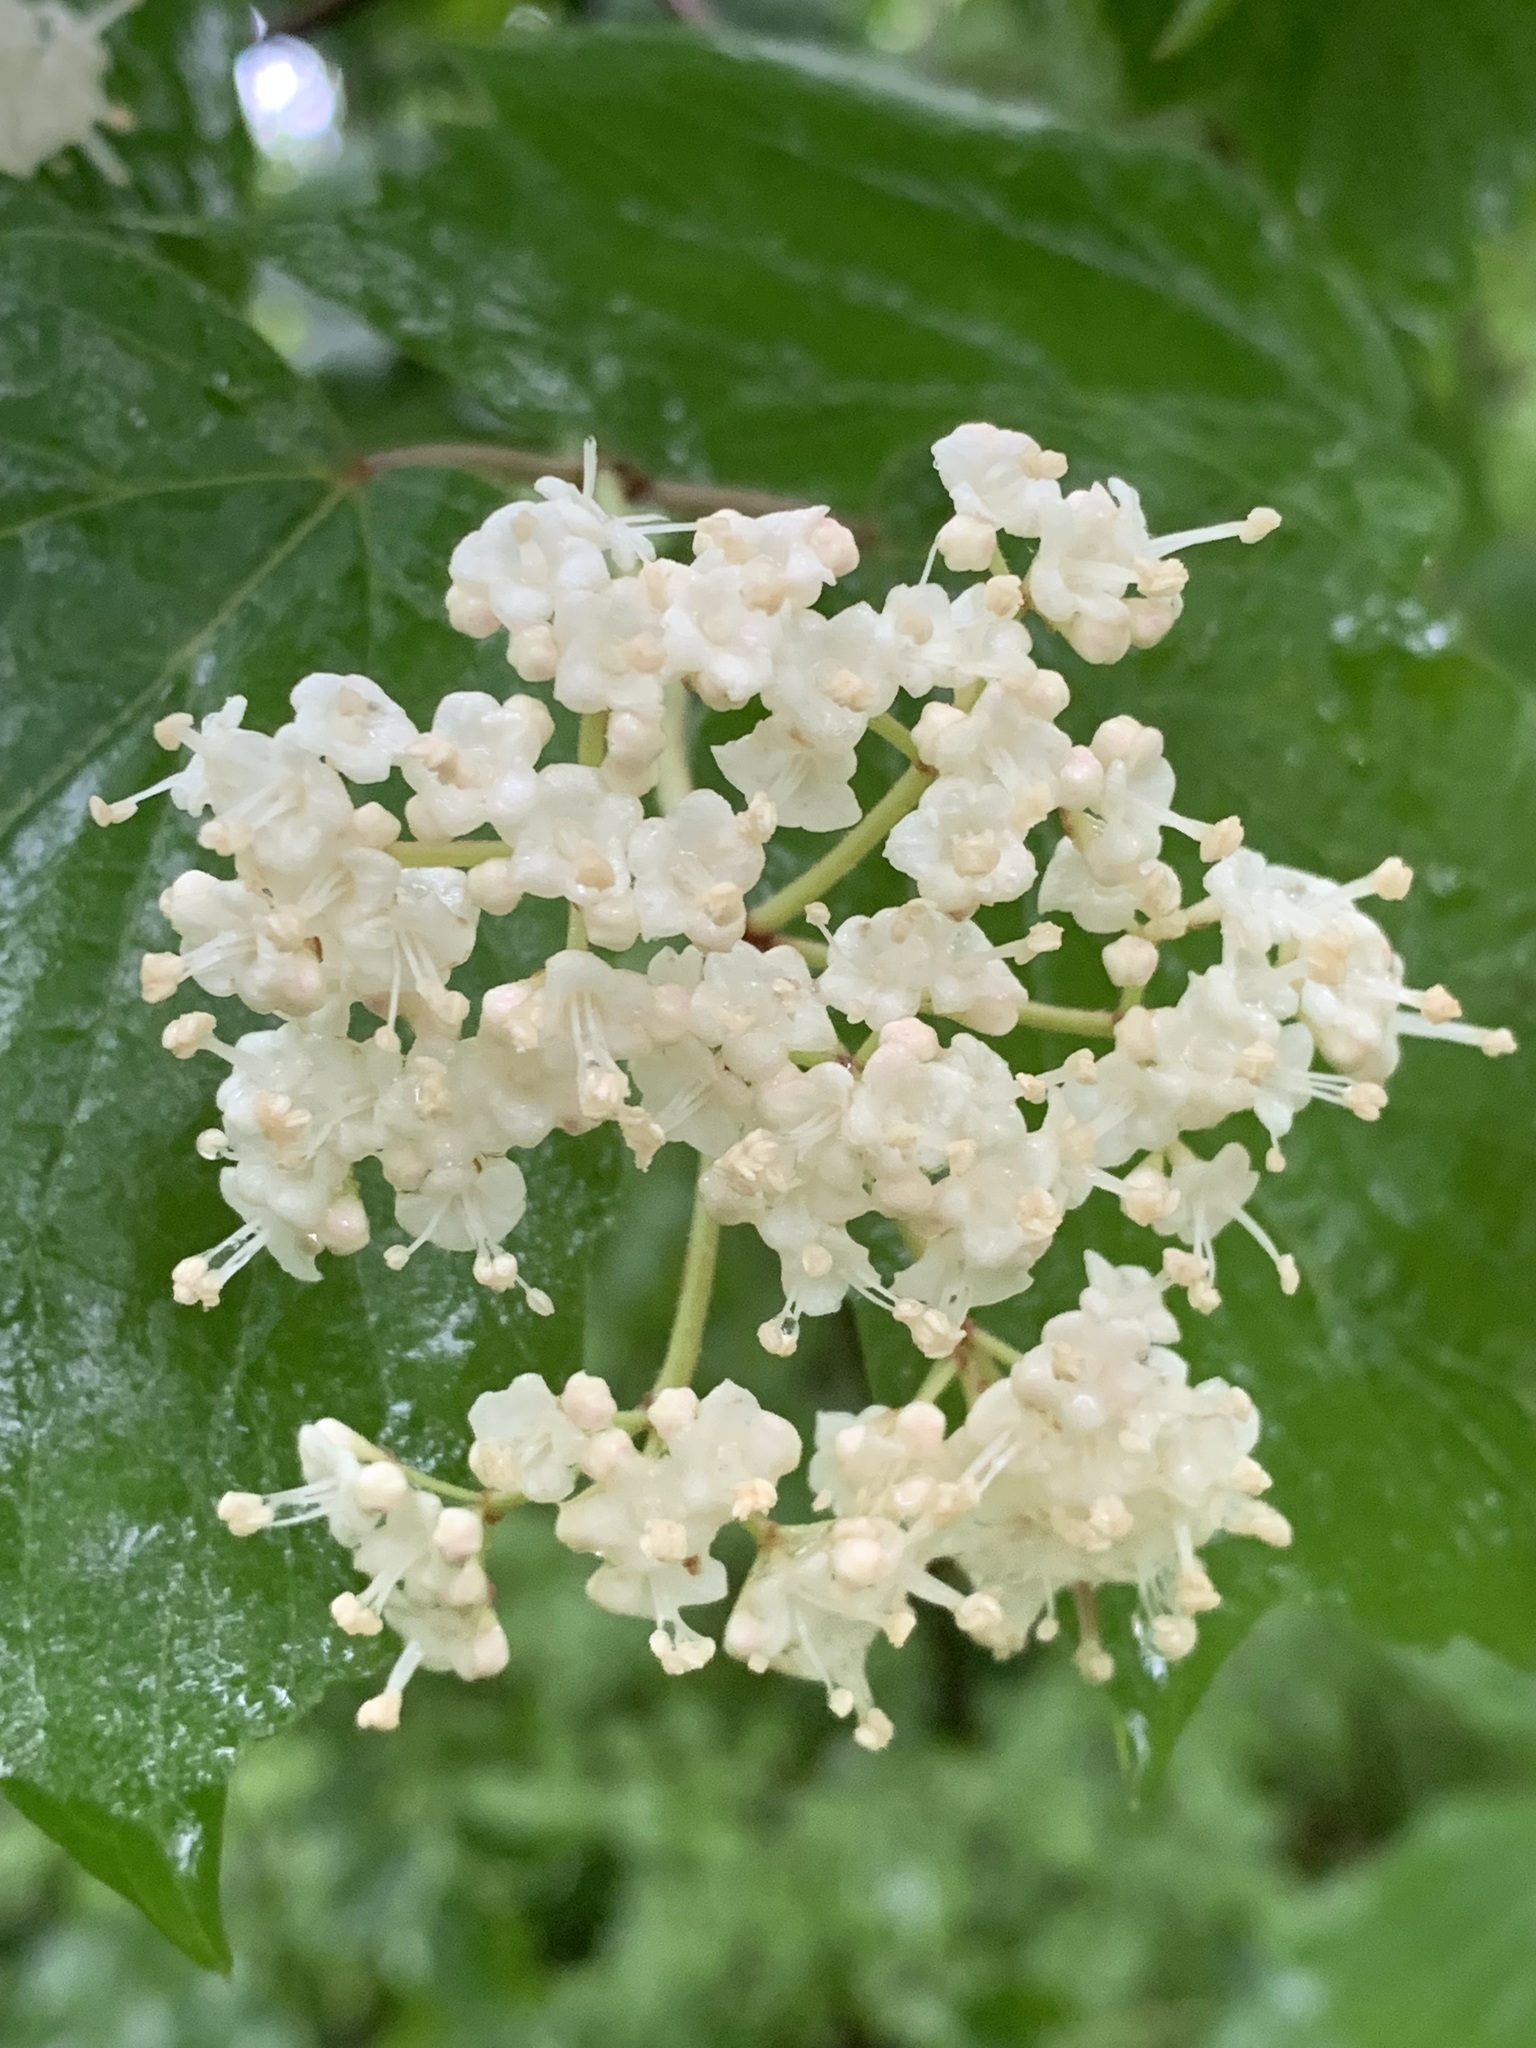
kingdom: Plantae
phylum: Tracheophyta
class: Magnoliopsida
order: Dipsacales
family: Viburnaceae
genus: Viburnum
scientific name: Viburnum acerifolium
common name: Dockmackie
